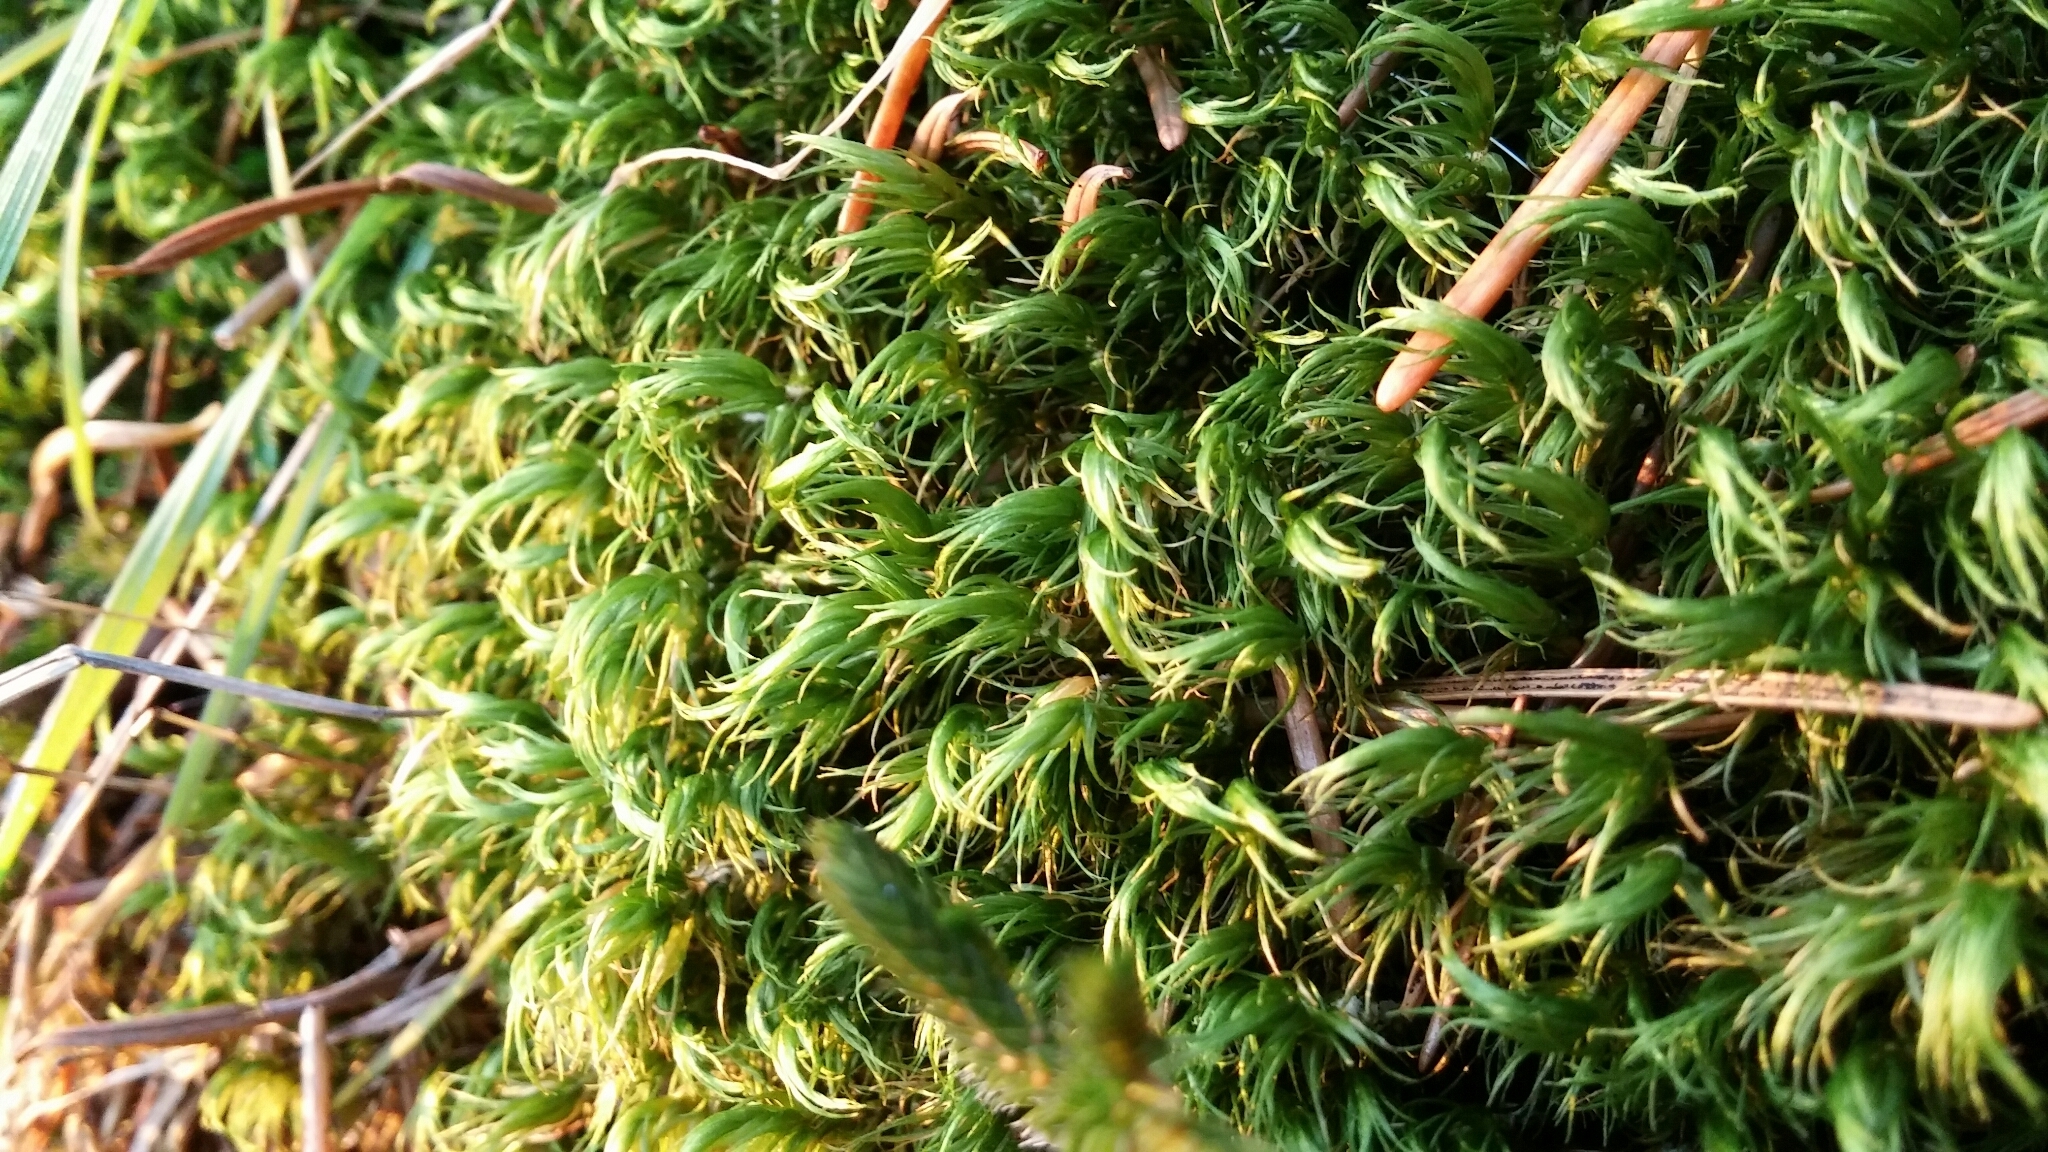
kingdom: Plantae
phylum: Bryophyta
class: Bryopsida
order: Dicranales
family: Dicranaceae
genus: Dicranum
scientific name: Dicranum scoparium
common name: Broom fork-moss
